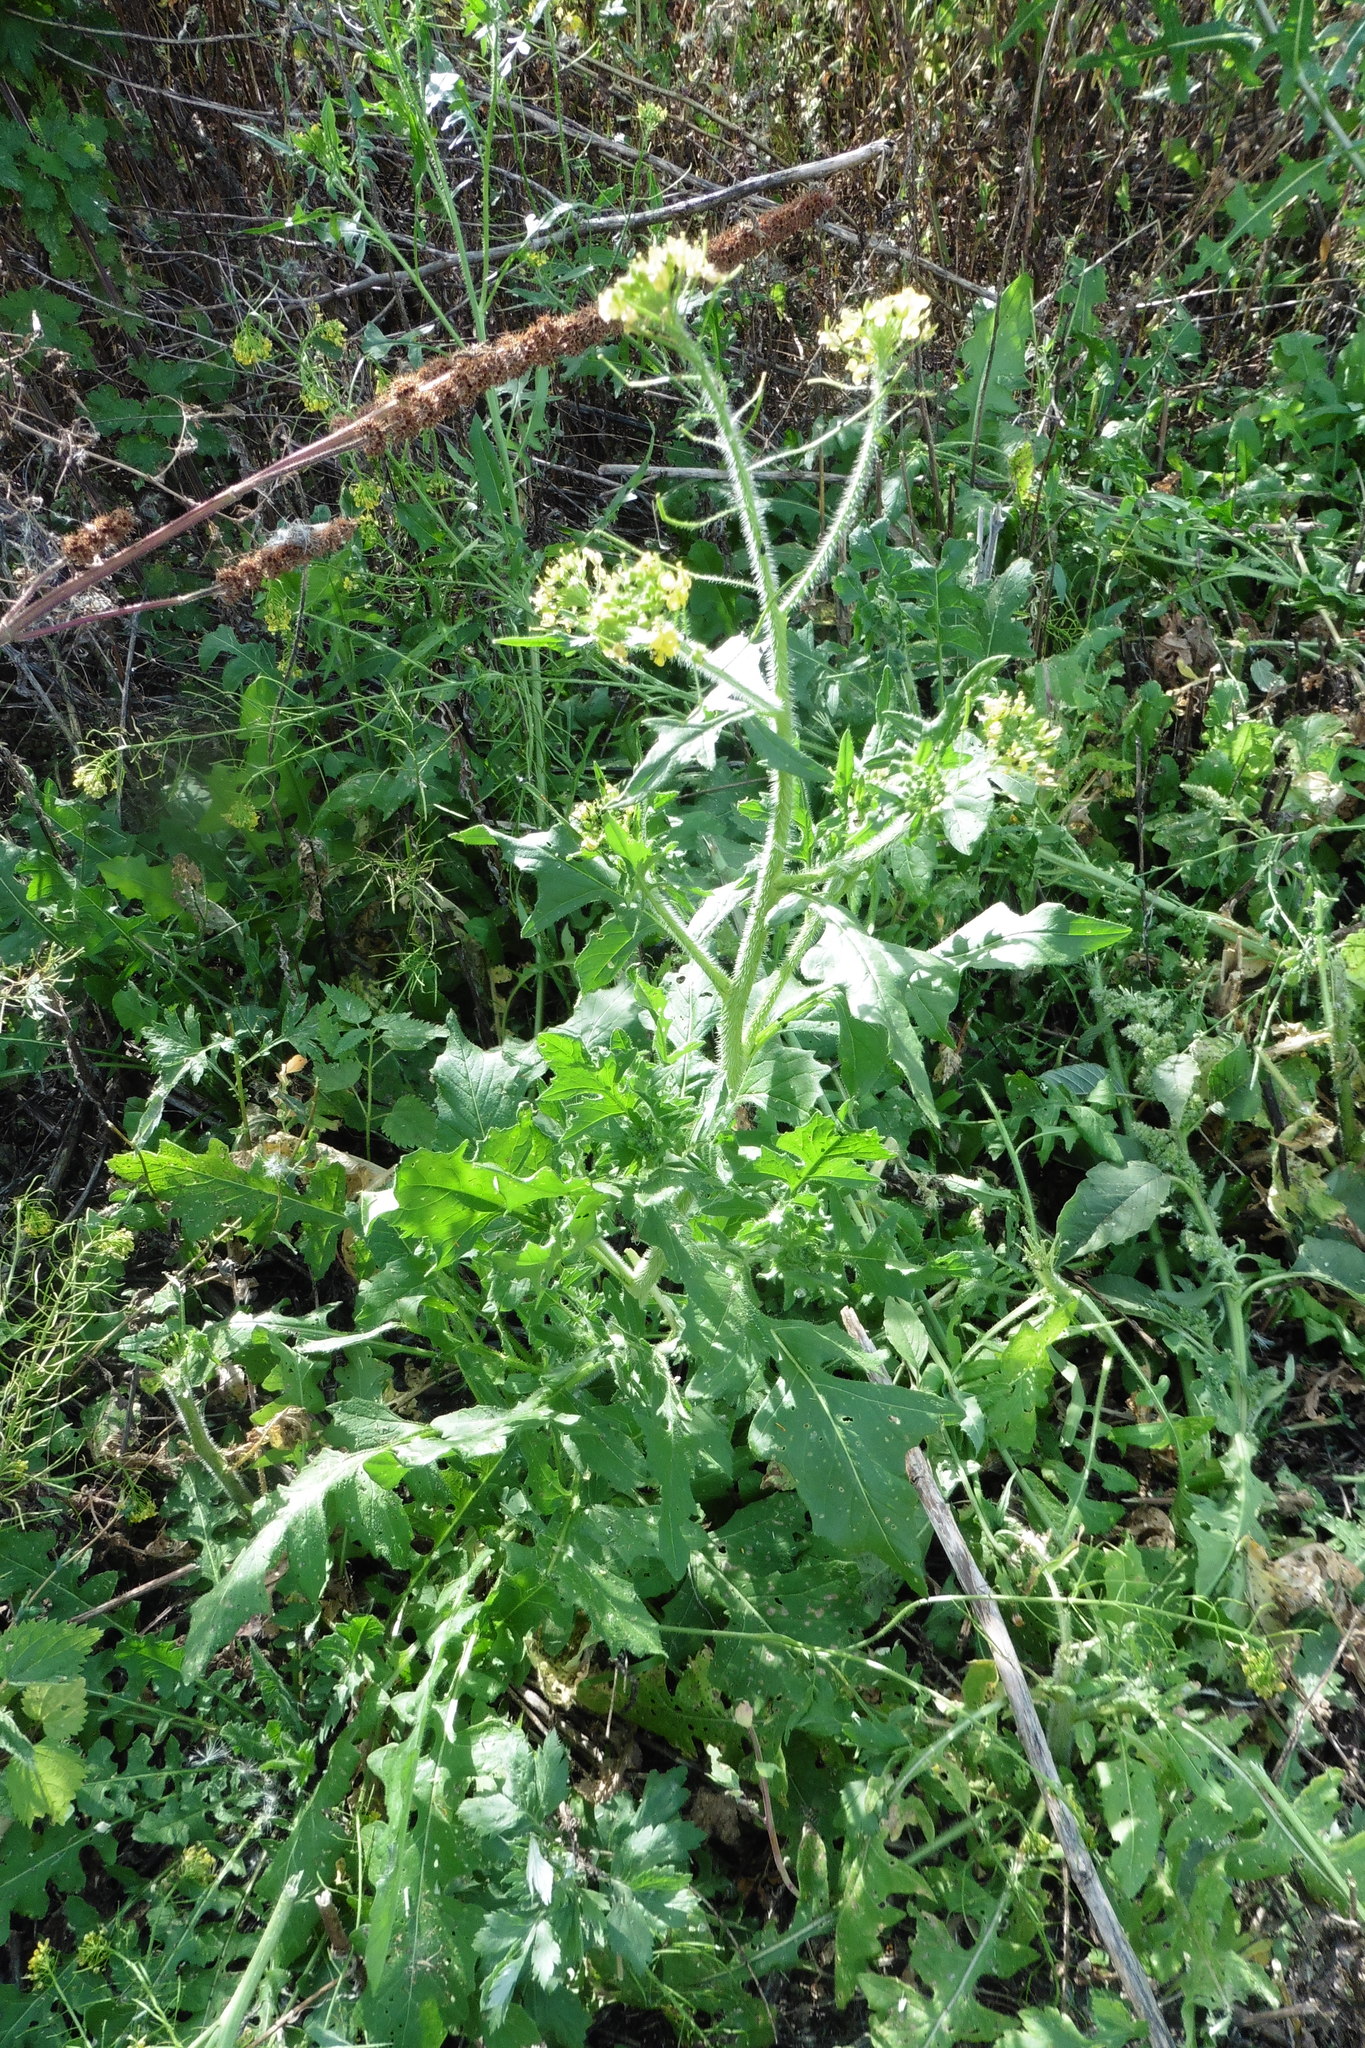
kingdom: Plantae
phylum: Tracheophyta
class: Magnoliopsida
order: Brassicales
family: Brassicaceae
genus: Sisymbrium
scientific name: Sisymbrium loeselii
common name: False london-rocket
